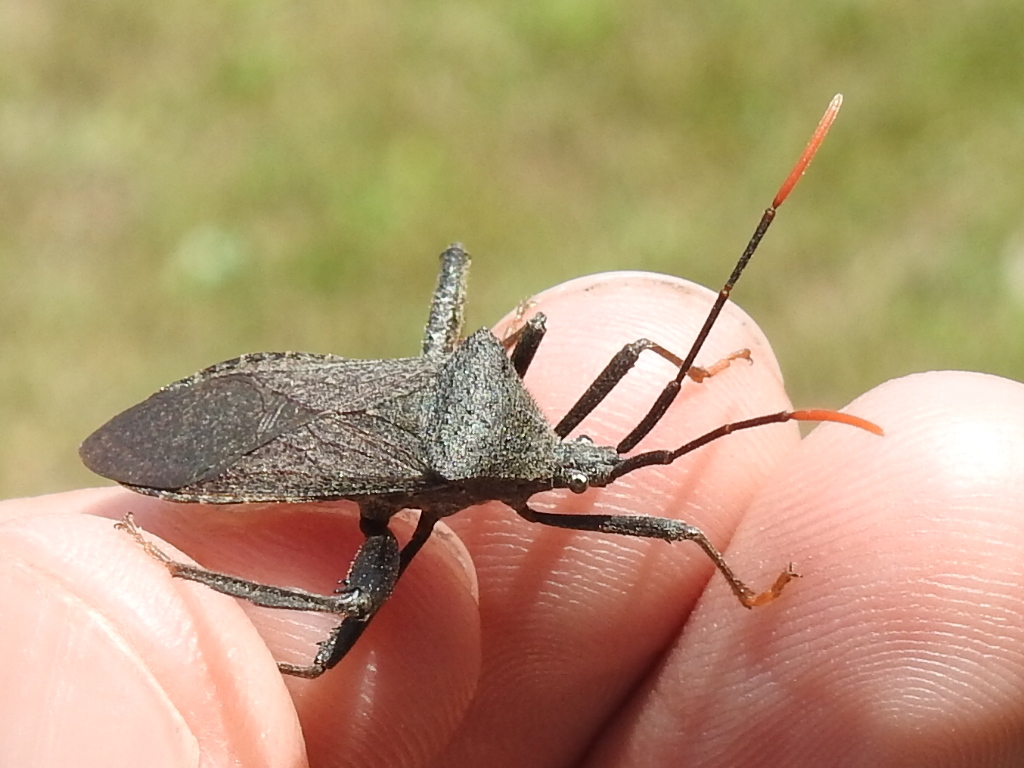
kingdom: Animalia
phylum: Arthropoda
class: Insecta
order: Hemiptera
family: Coreidae
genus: Acanthocephala
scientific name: Acanthocephala terminalis
